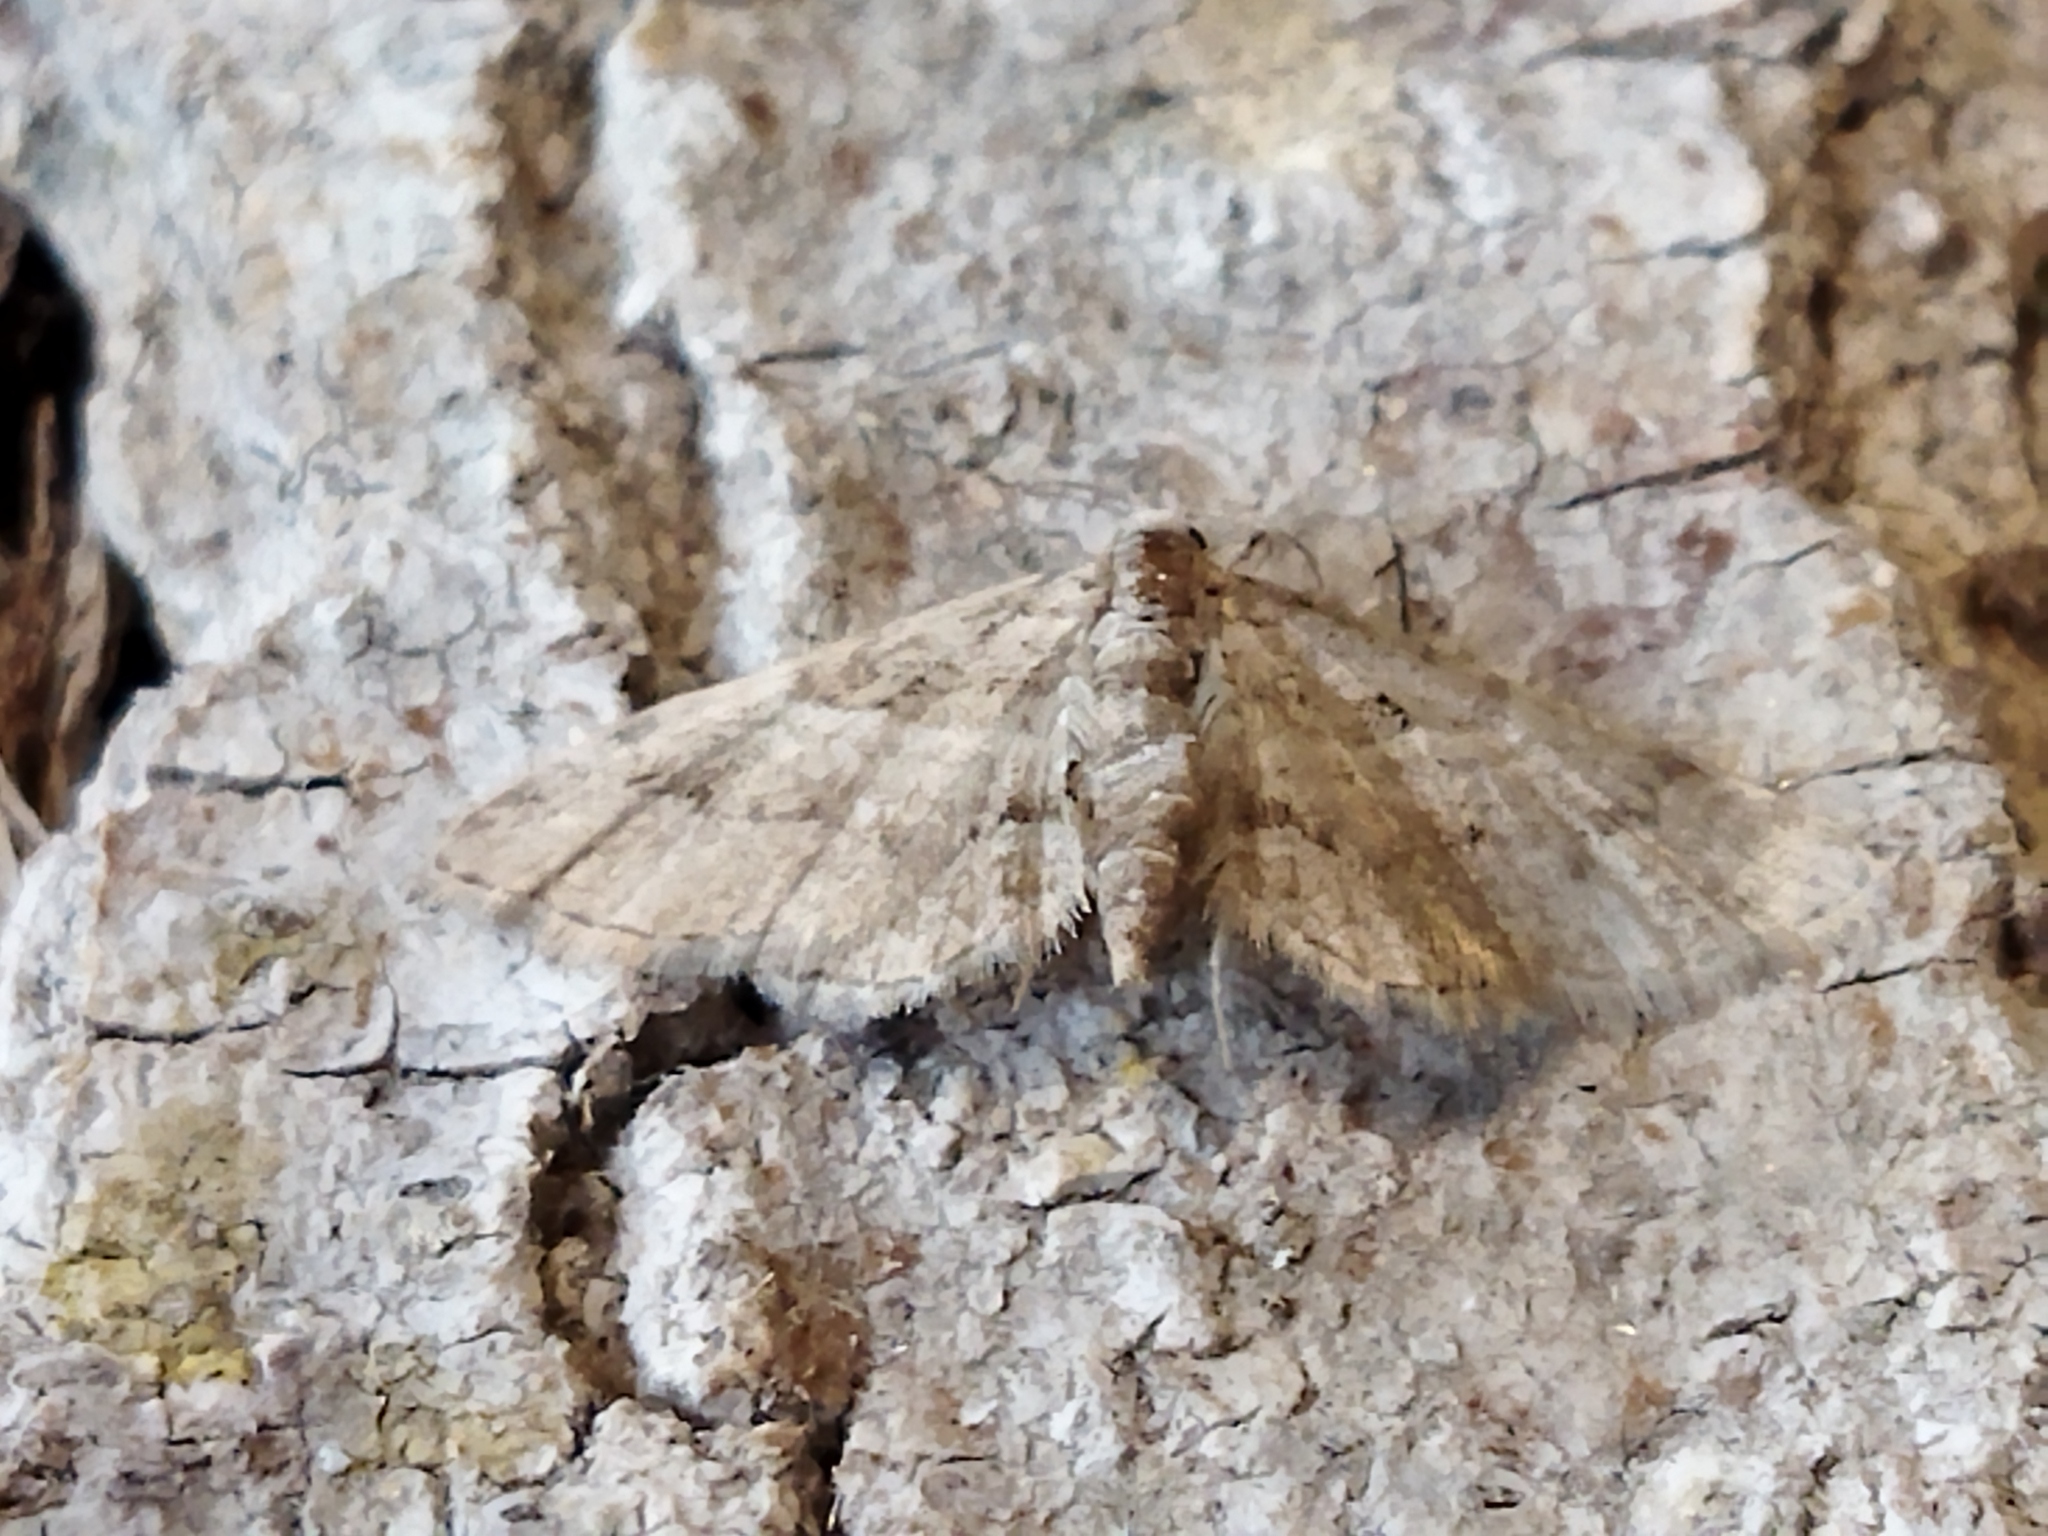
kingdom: Animalia
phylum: Arthropoda
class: Insecta
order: Lepidoptera
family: Geometridae
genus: Gymnoscelis
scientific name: Gymnoscelis rufifasciata
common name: Double-striped pug
